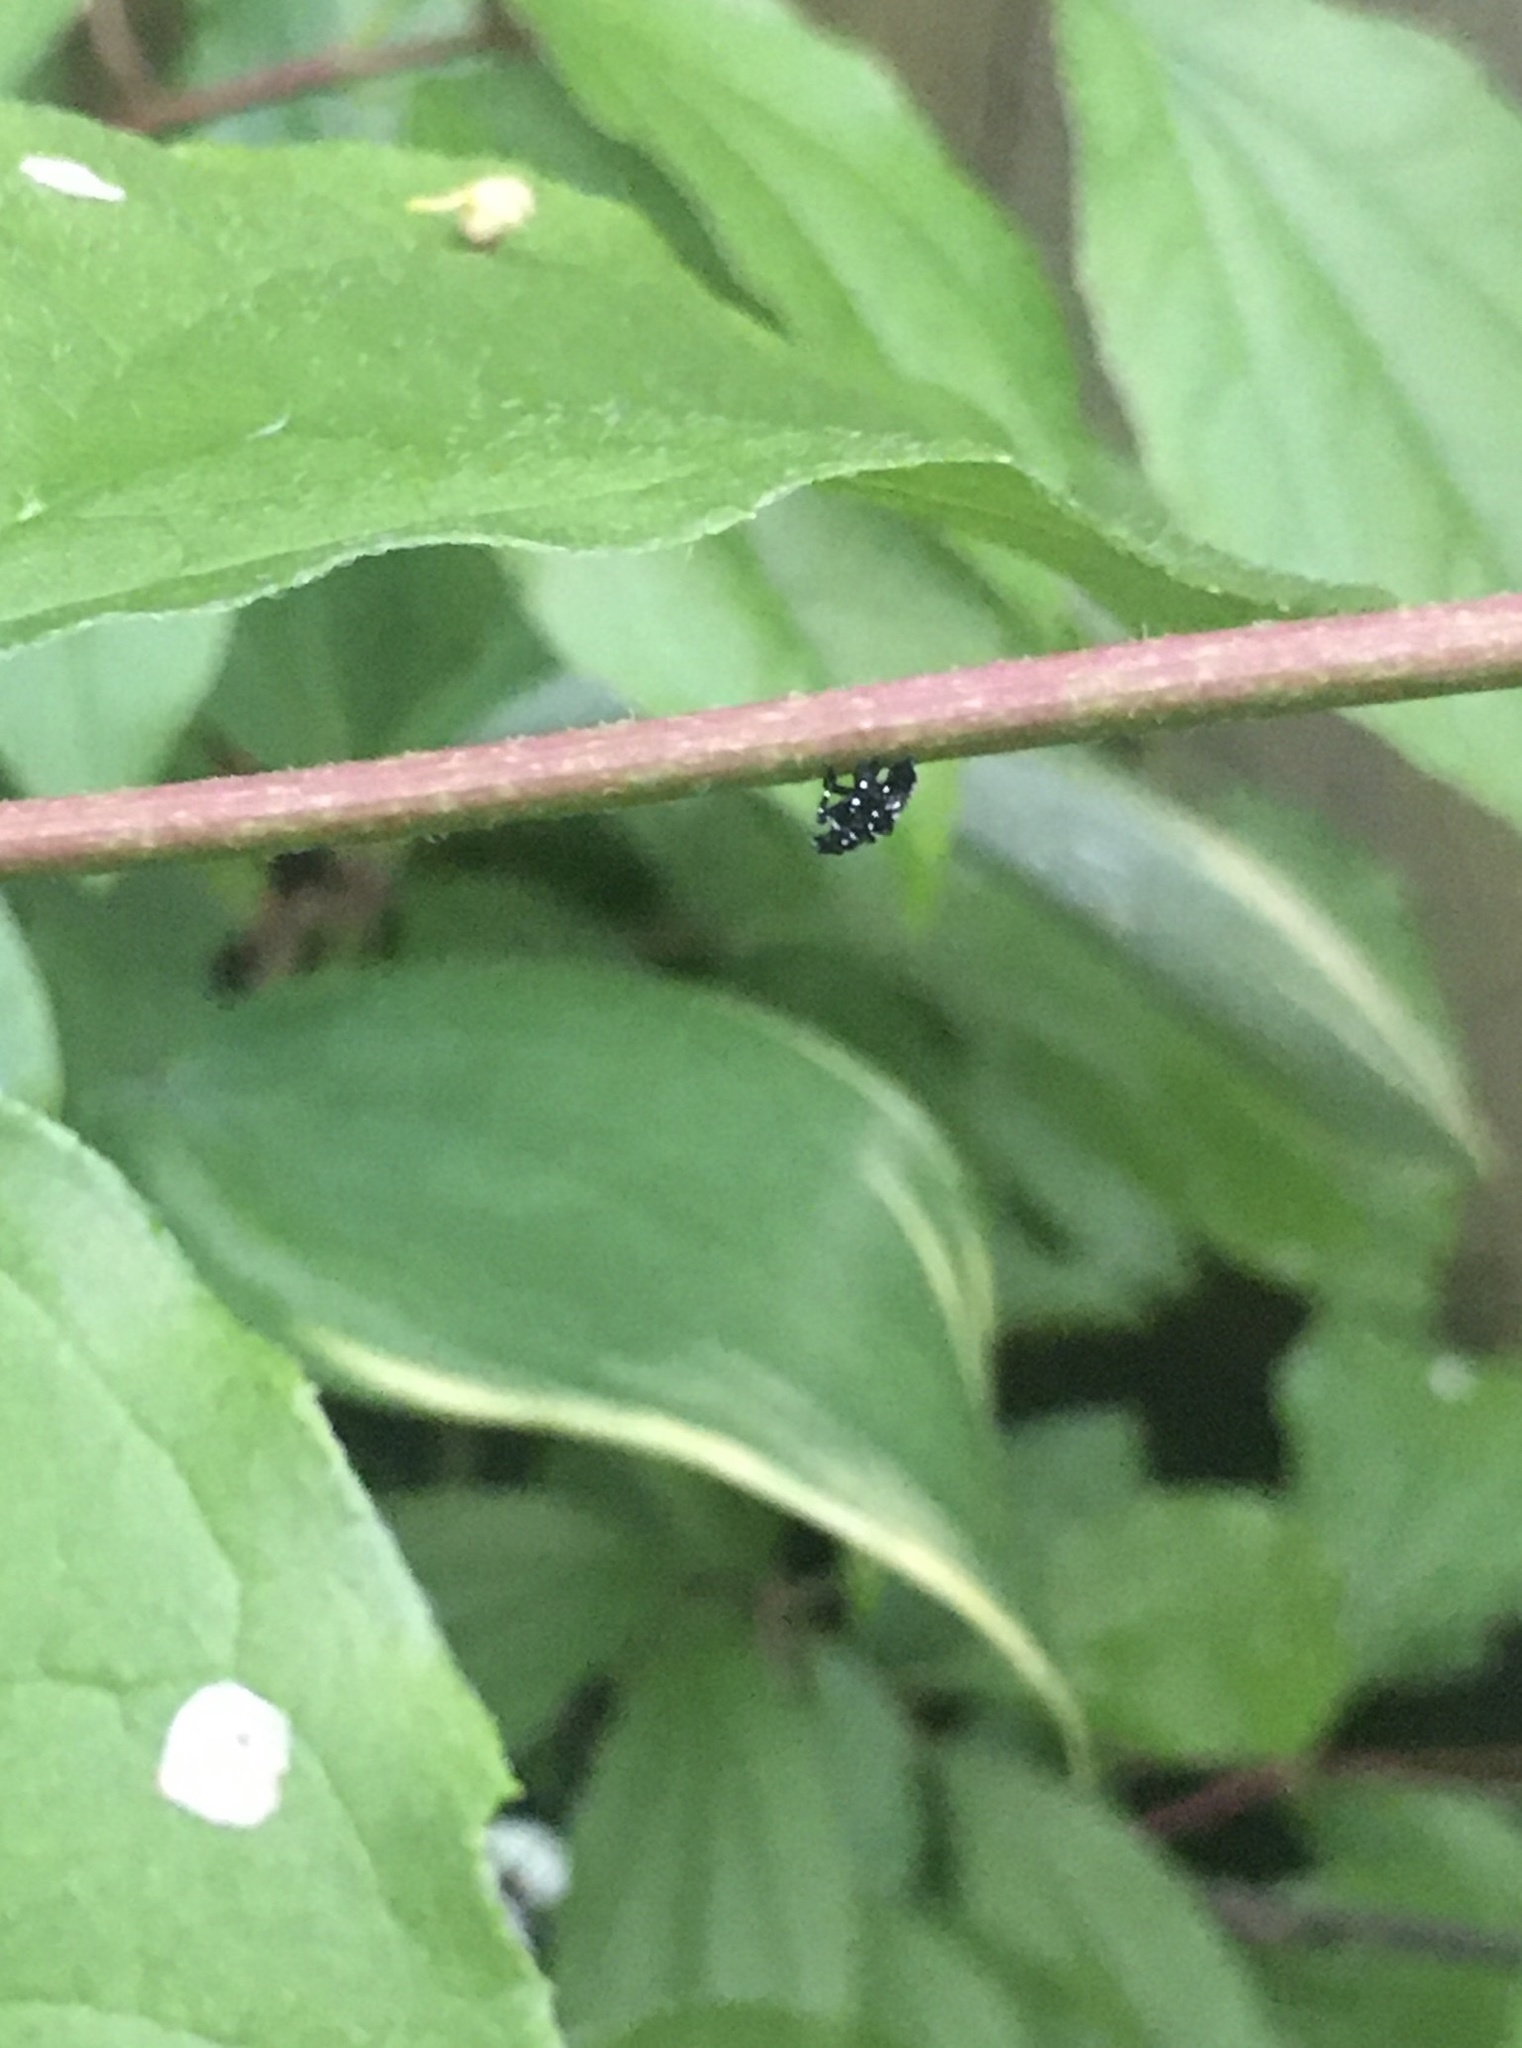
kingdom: Animalia
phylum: Arthropoda
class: Insecta
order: Hemiptera
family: Fulgoridae
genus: Lycorma
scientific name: Lycorma delicatula
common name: Spotted lanternfly
